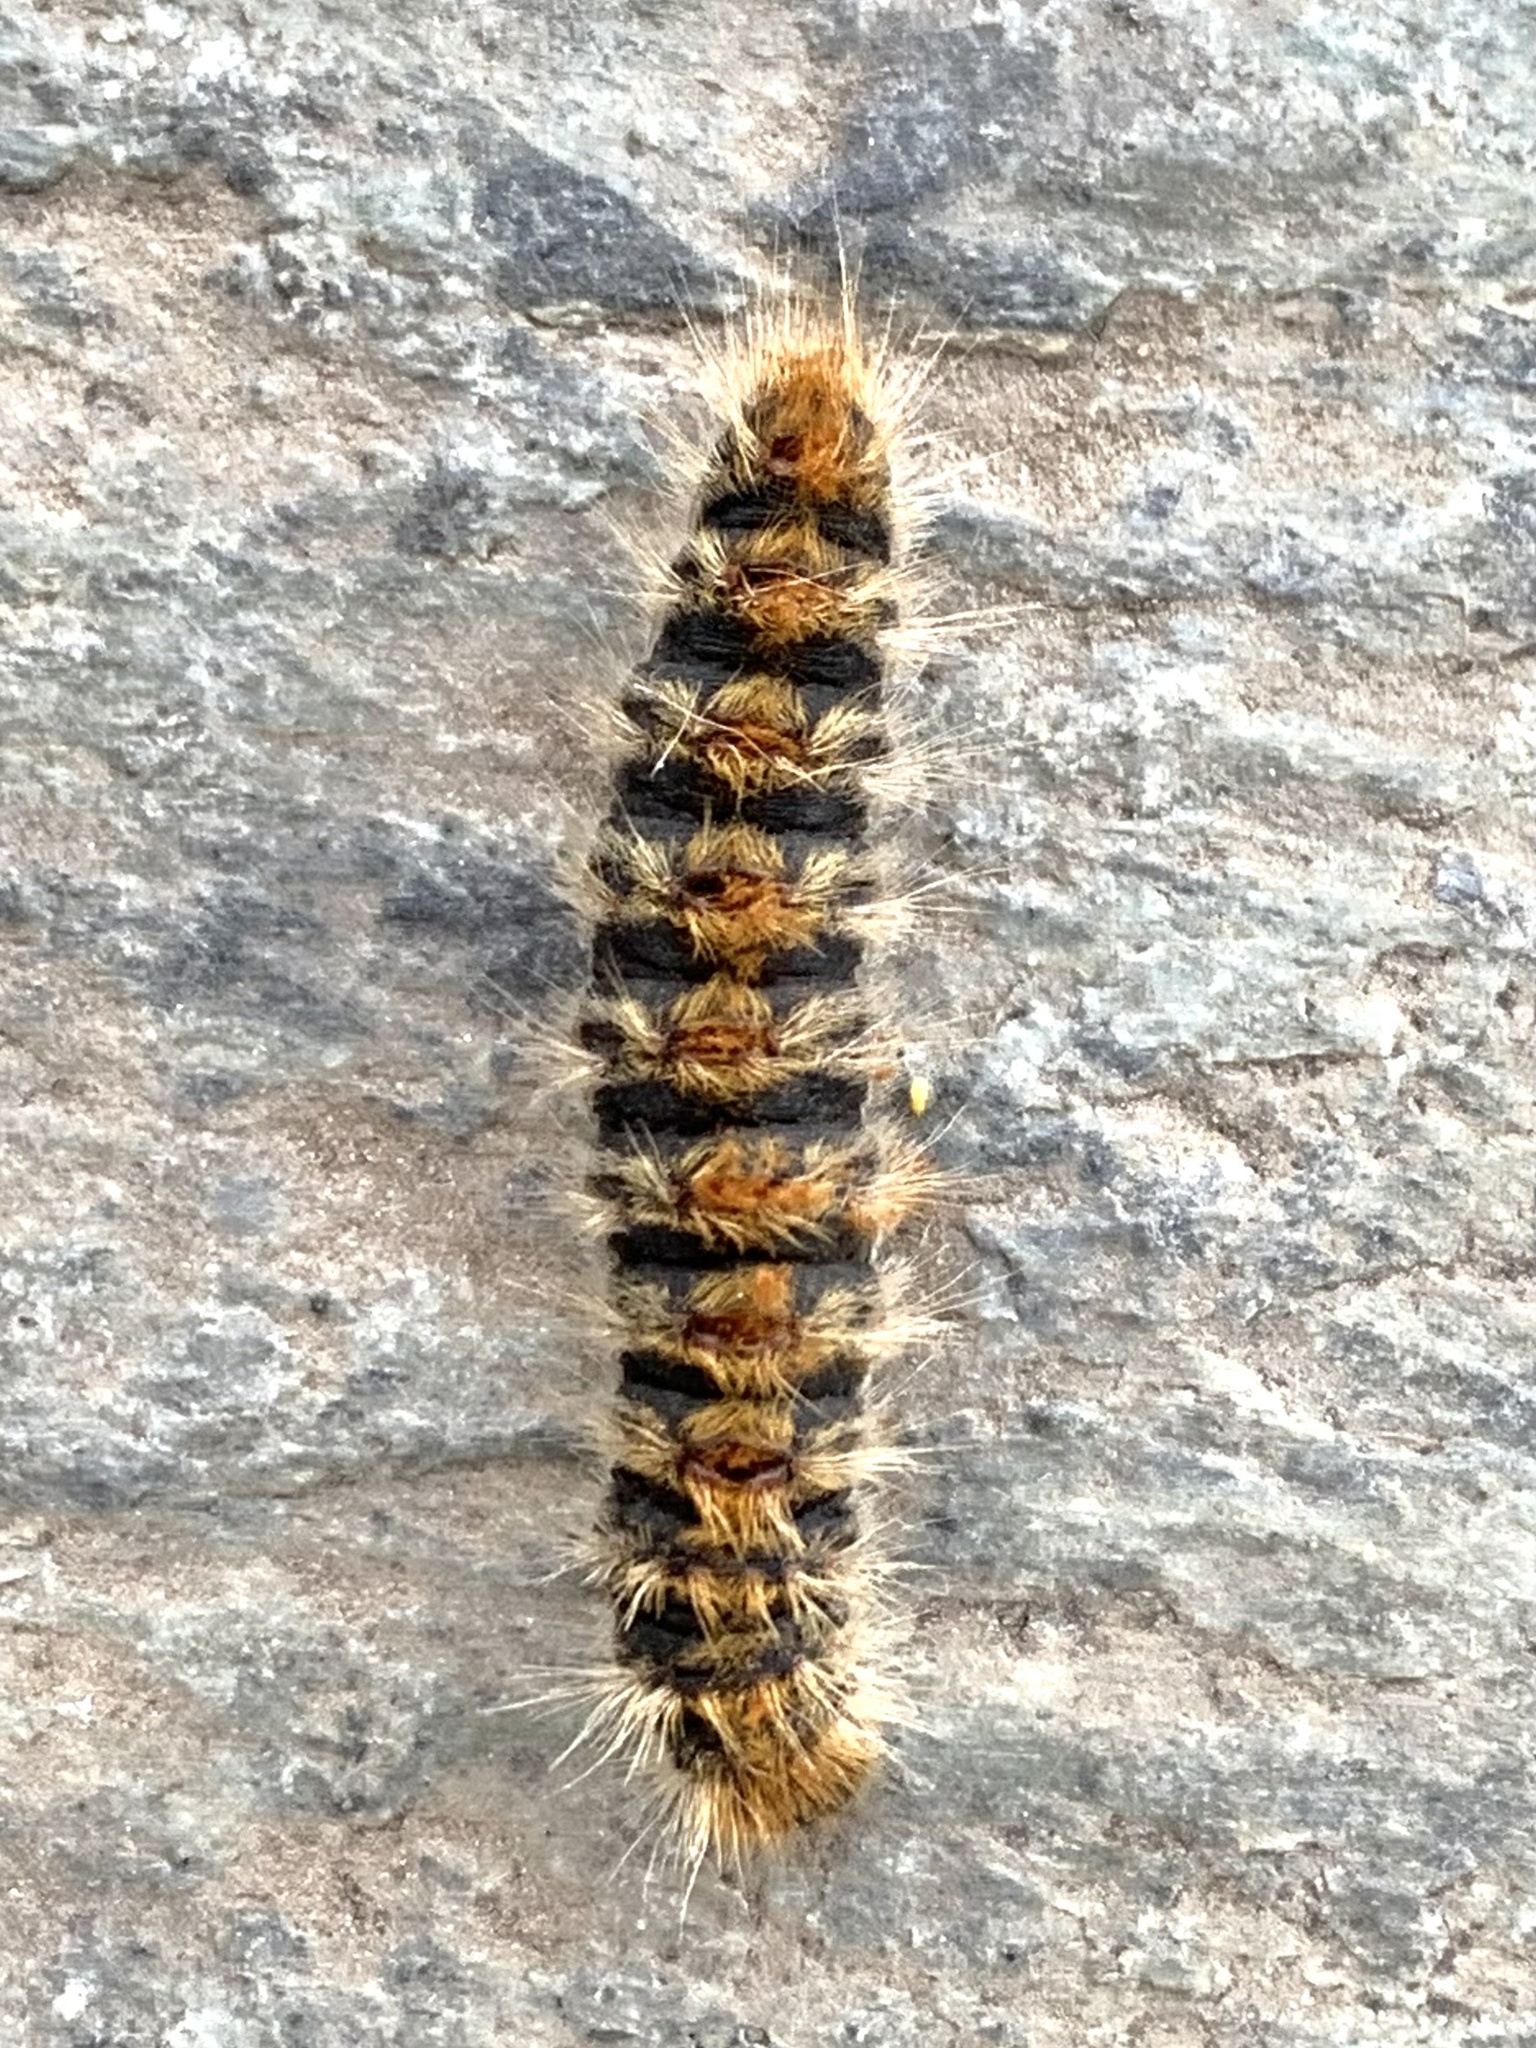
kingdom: Animalia
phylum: Arthropoda
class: Insecta
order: Lepidoptera
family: Notodontidae
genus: Thaumetopoea
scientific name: Thaumetopoea pityocampa
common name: Pine processionary
